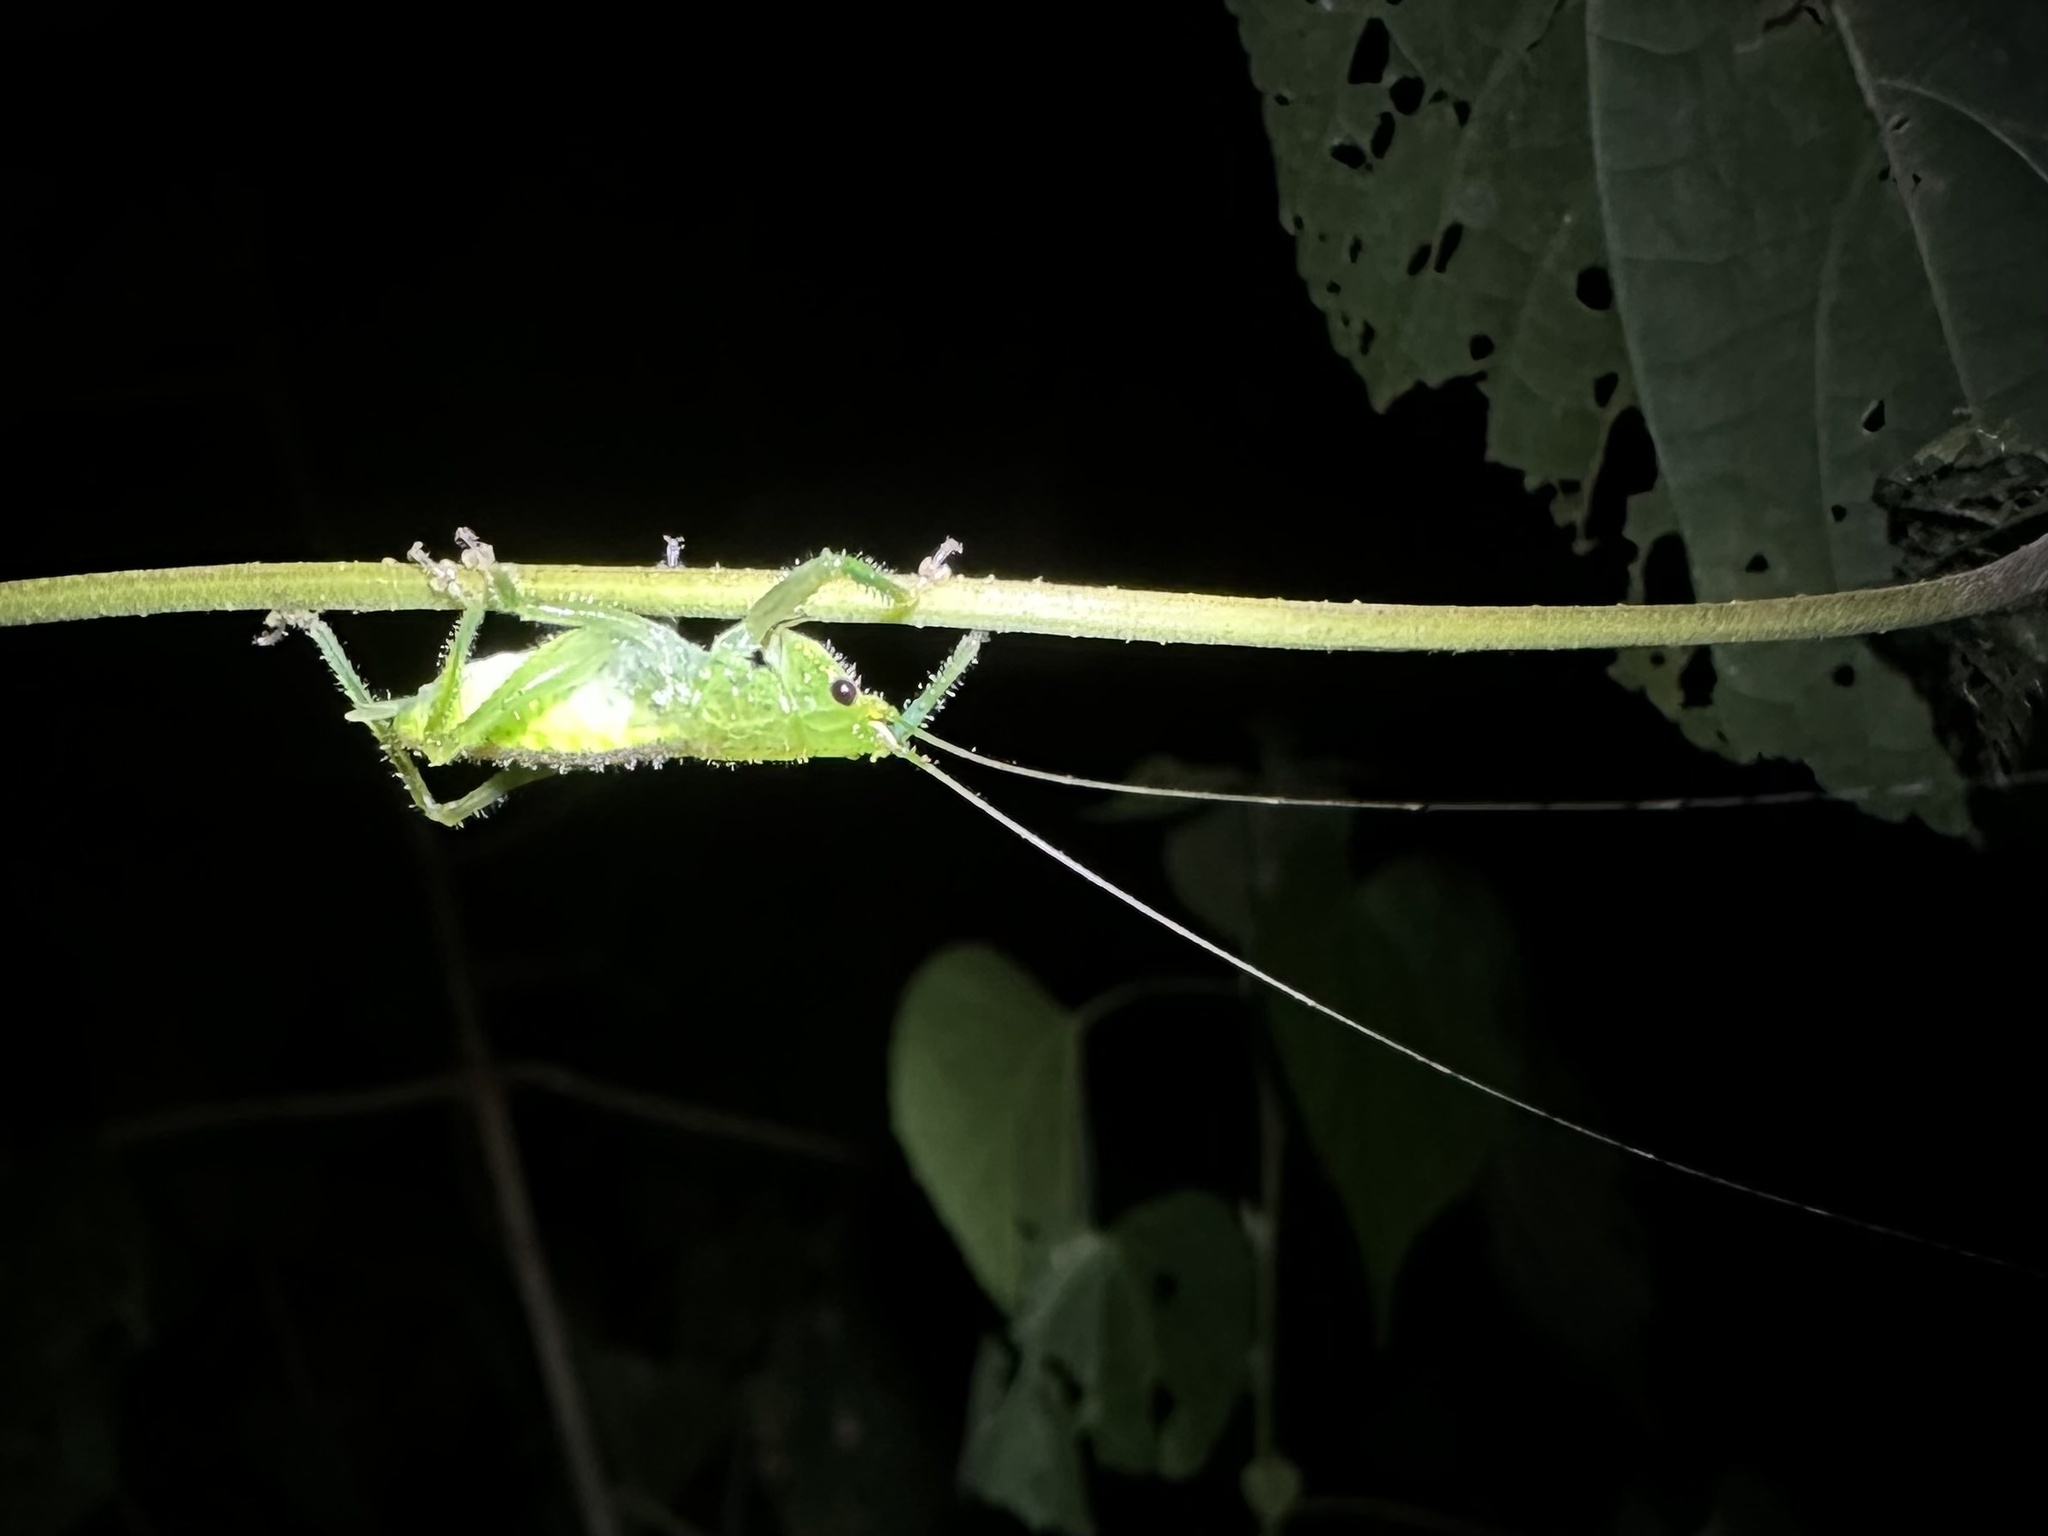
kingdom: Animalia
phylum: Arthropoda
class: Insecta
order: Orthoptera
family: Tettigoniidae
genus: Copiphora
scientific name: Copiphora brevirostris
